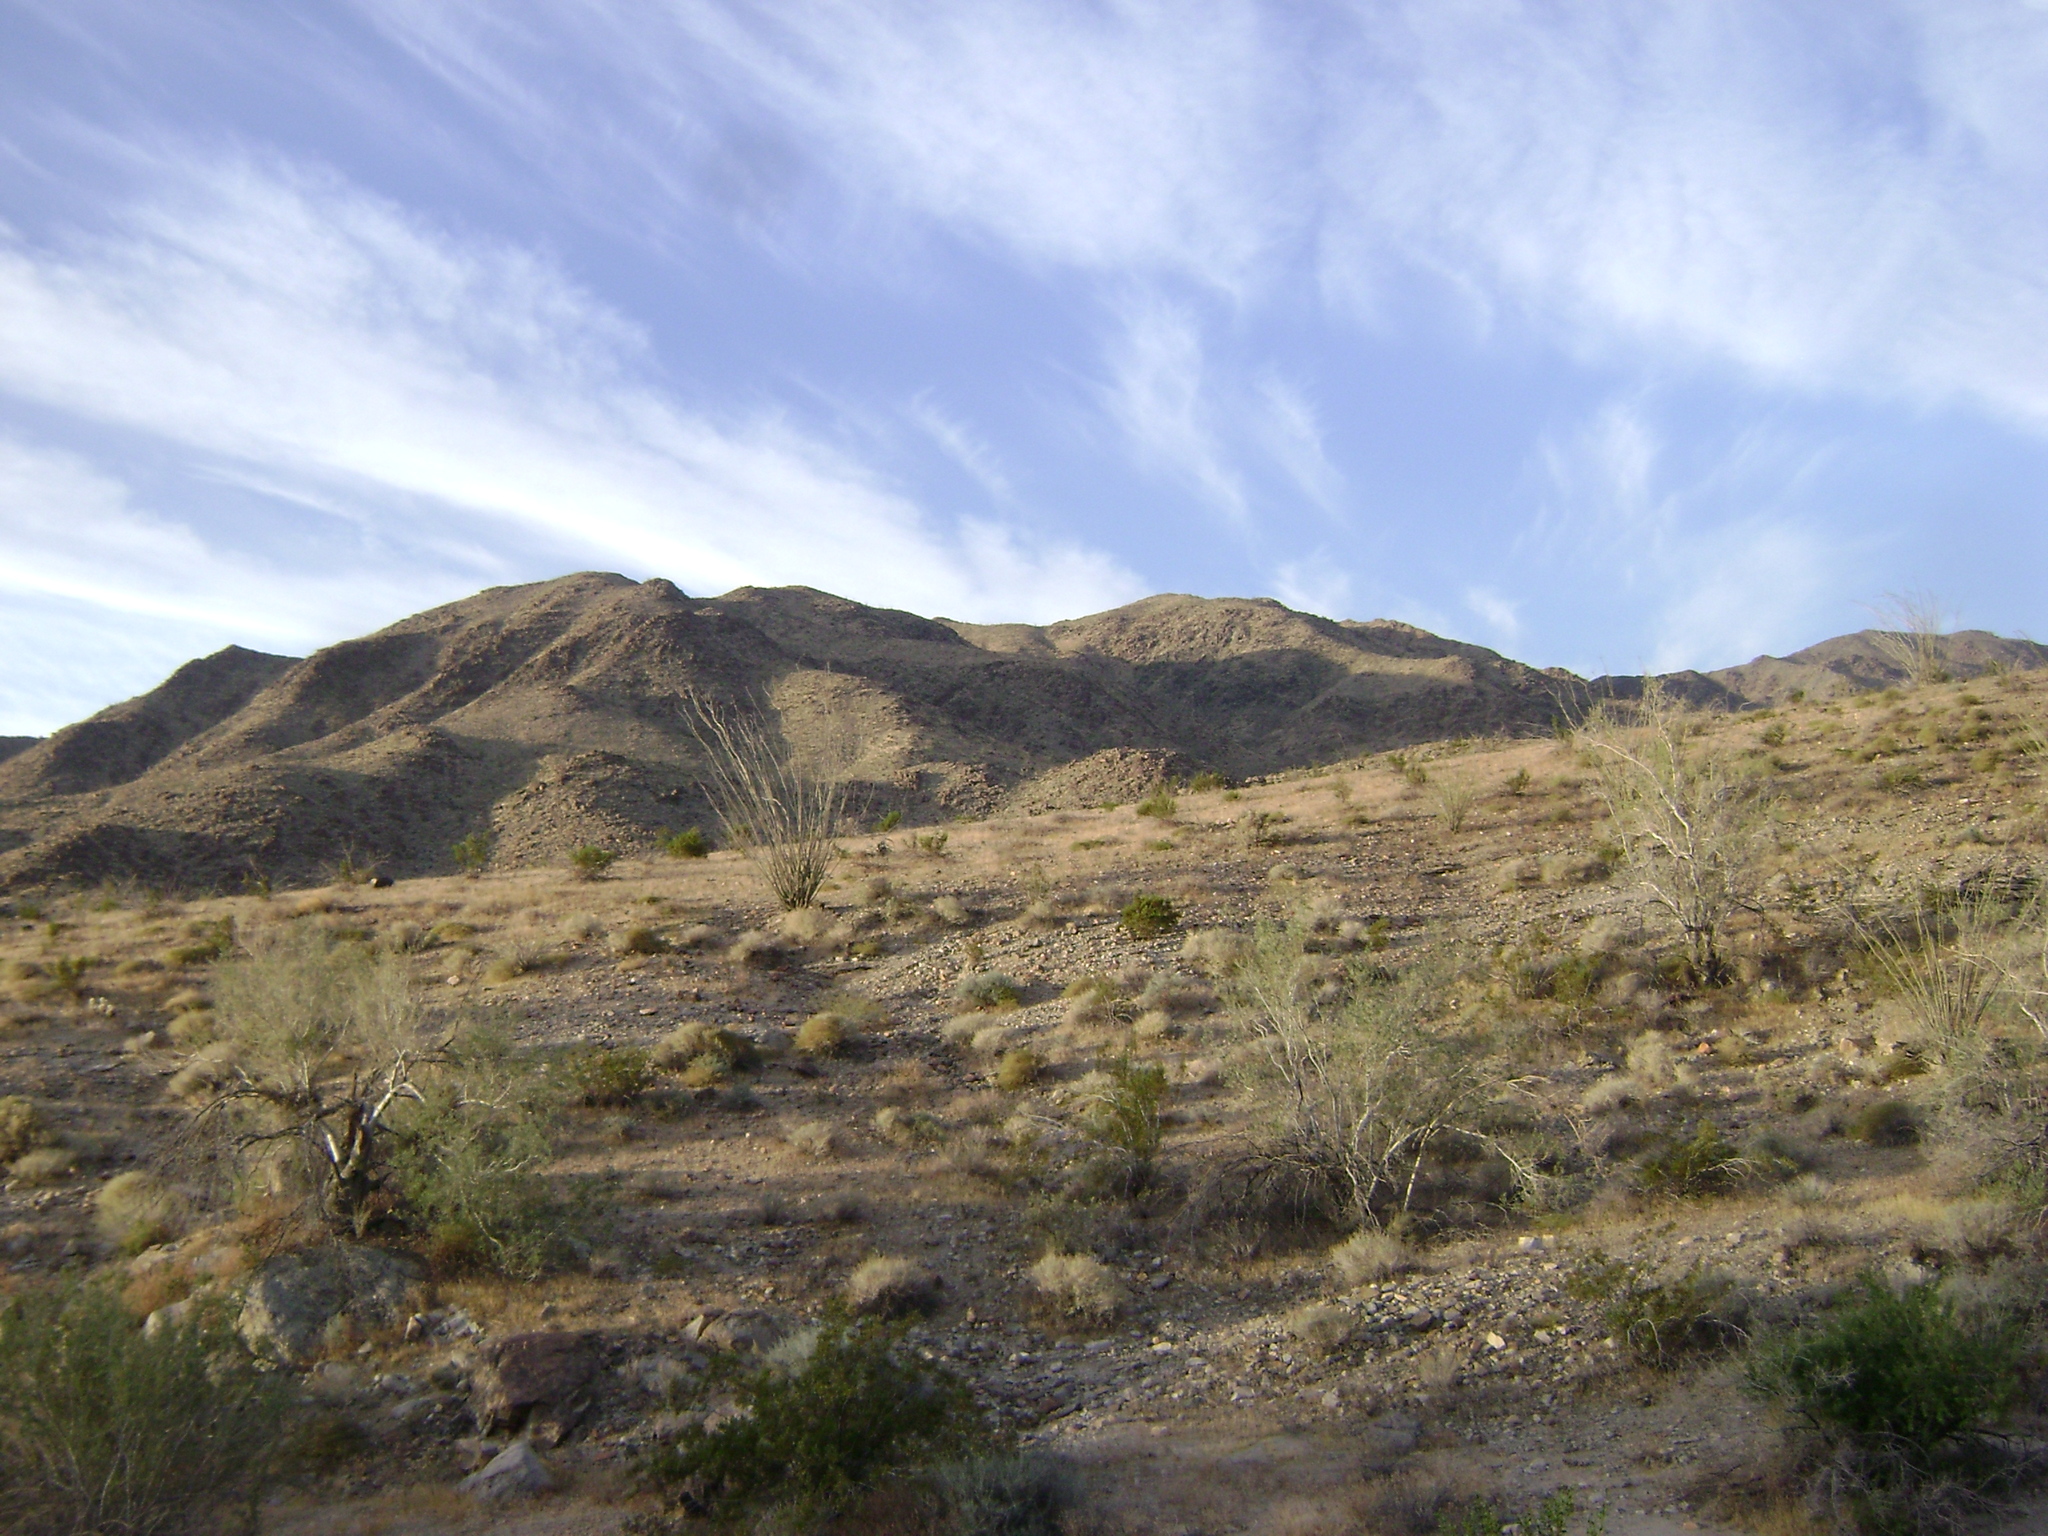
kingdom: Plantae
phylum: Tracheophyta
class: Magnoliopsida
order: Zygophyllales
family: Zygophyllaceae
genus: Larrea
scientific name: Larrea tridentata
